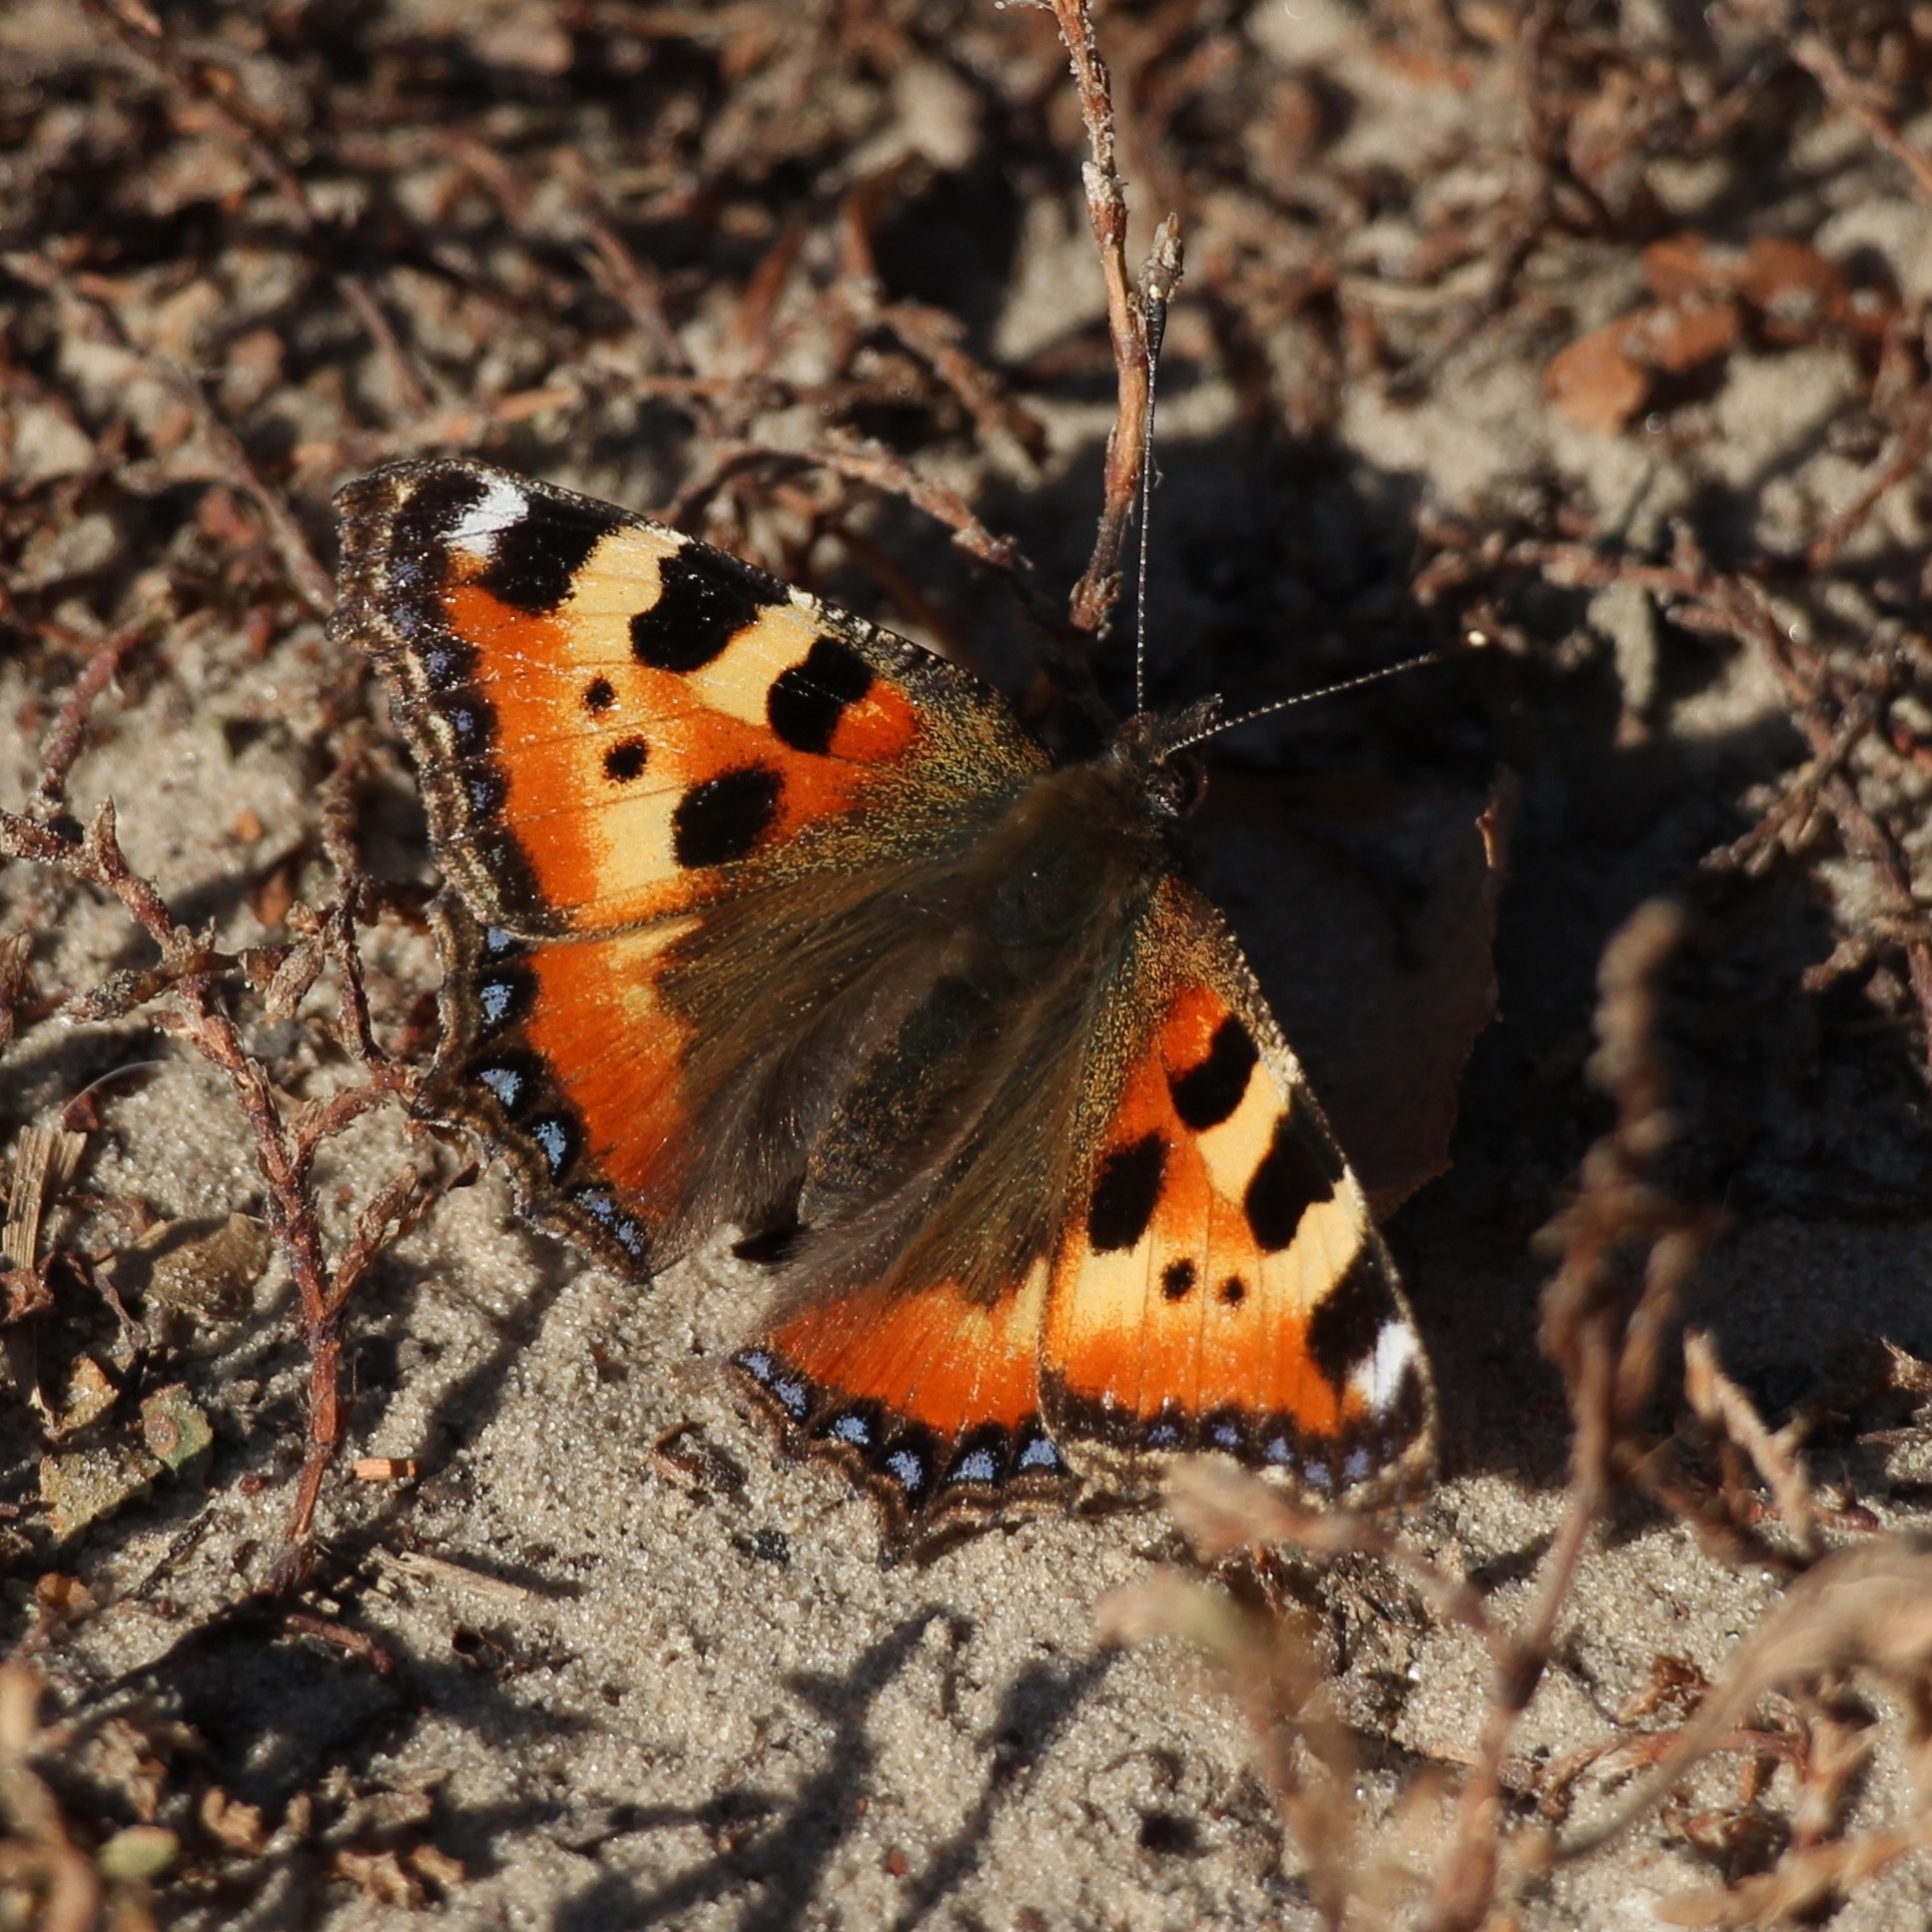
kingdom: Animalia
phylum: Arthropoda
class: Insecta
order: Lepidoptera
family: Nymphalidae
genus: Aglais
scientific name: Aglais urticae
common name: Small tortoiseshell
